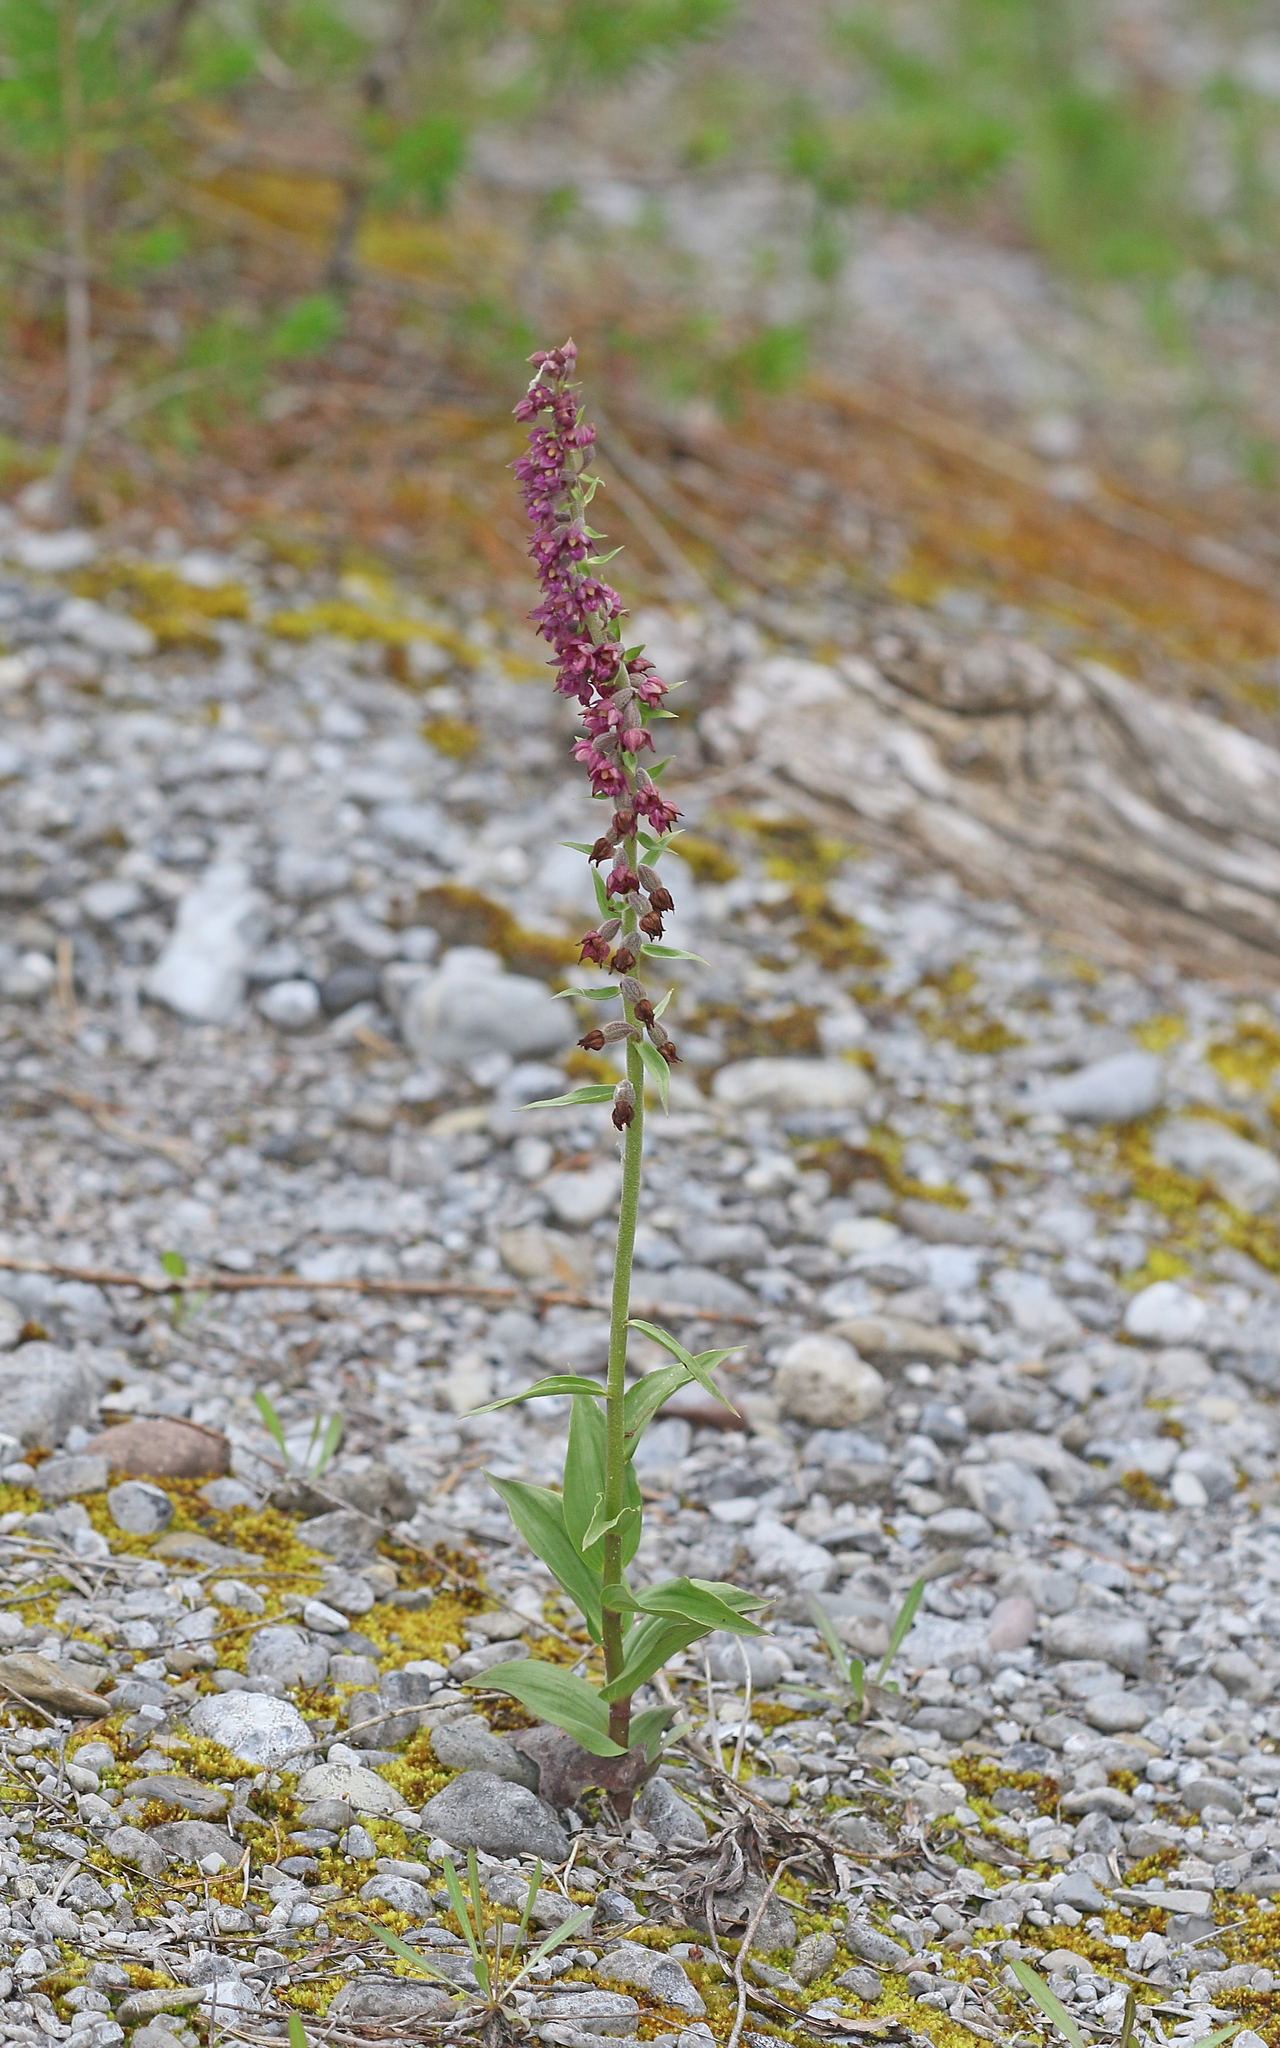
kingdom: Plantae
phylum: Tracheophyta
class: Liliopsida
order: Asparagales
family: Orchidaceae
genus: Epipactis
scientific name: Epipactis atrorubens
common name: Dark-red helleborine
